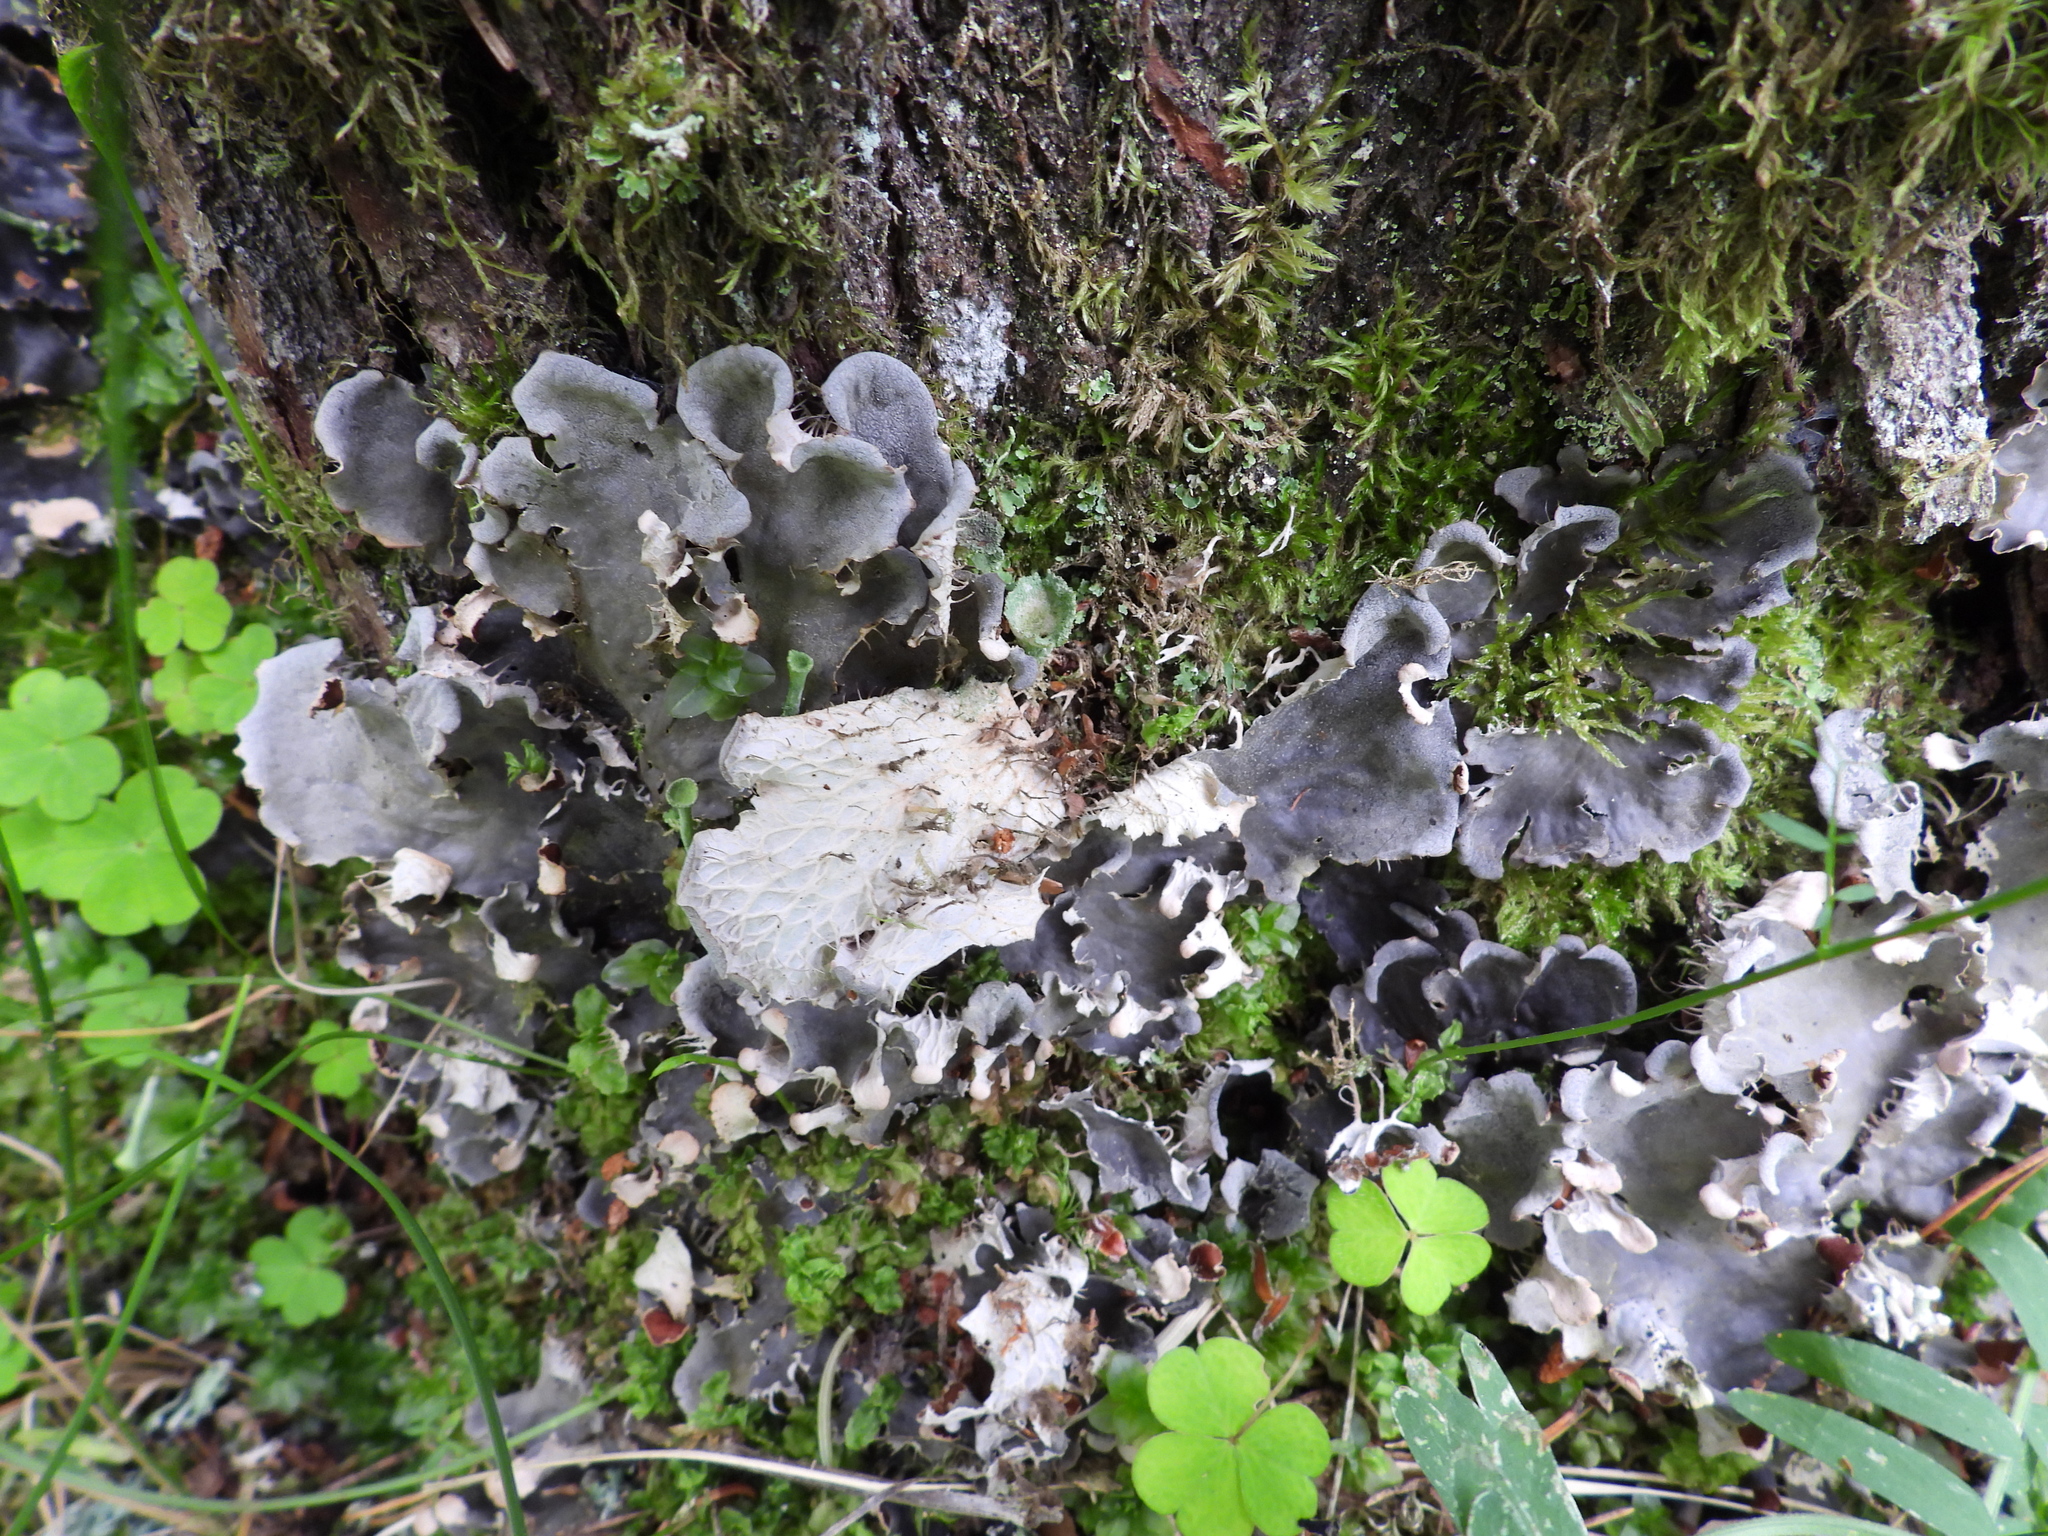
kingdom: Fungi
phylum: Ascomycota
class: Lecanoromycetes
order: Peltigerales
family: Peltigeraceae
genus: Peltigera
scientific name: Peltigera praetextata
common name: Scaly dog-lichen
